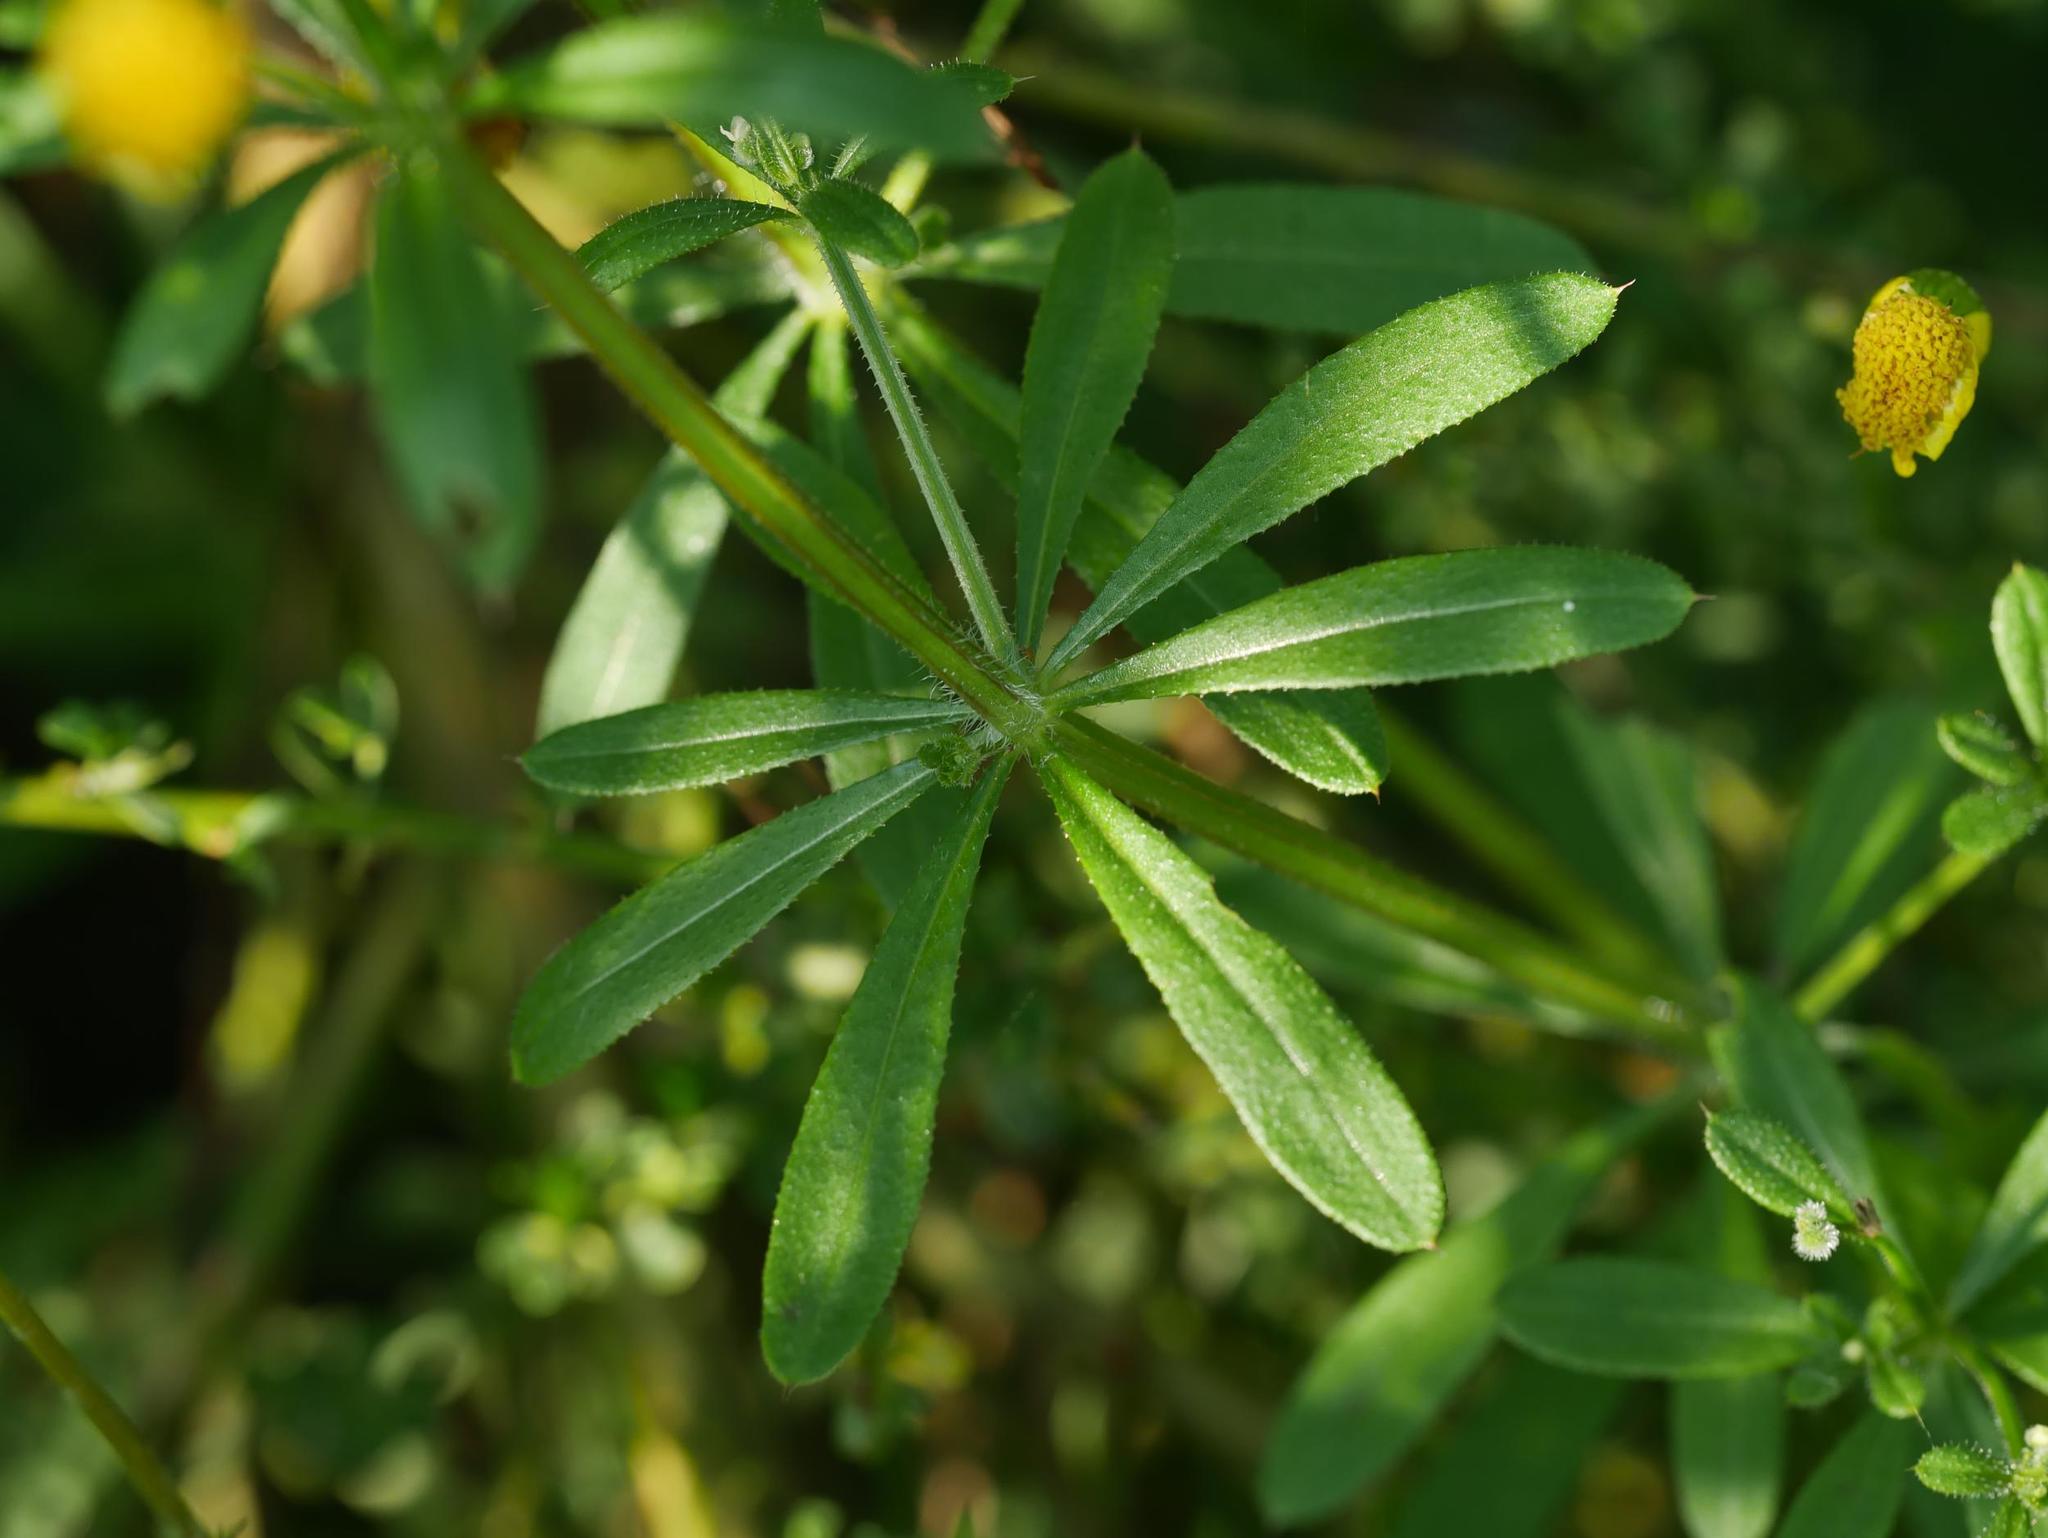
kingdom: Plantae
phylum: Tracheophyta
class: Magnoliopsida
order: Gentianales
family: Rubiaceae
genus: Galium
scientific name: Galium aparine
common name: Cleavers
